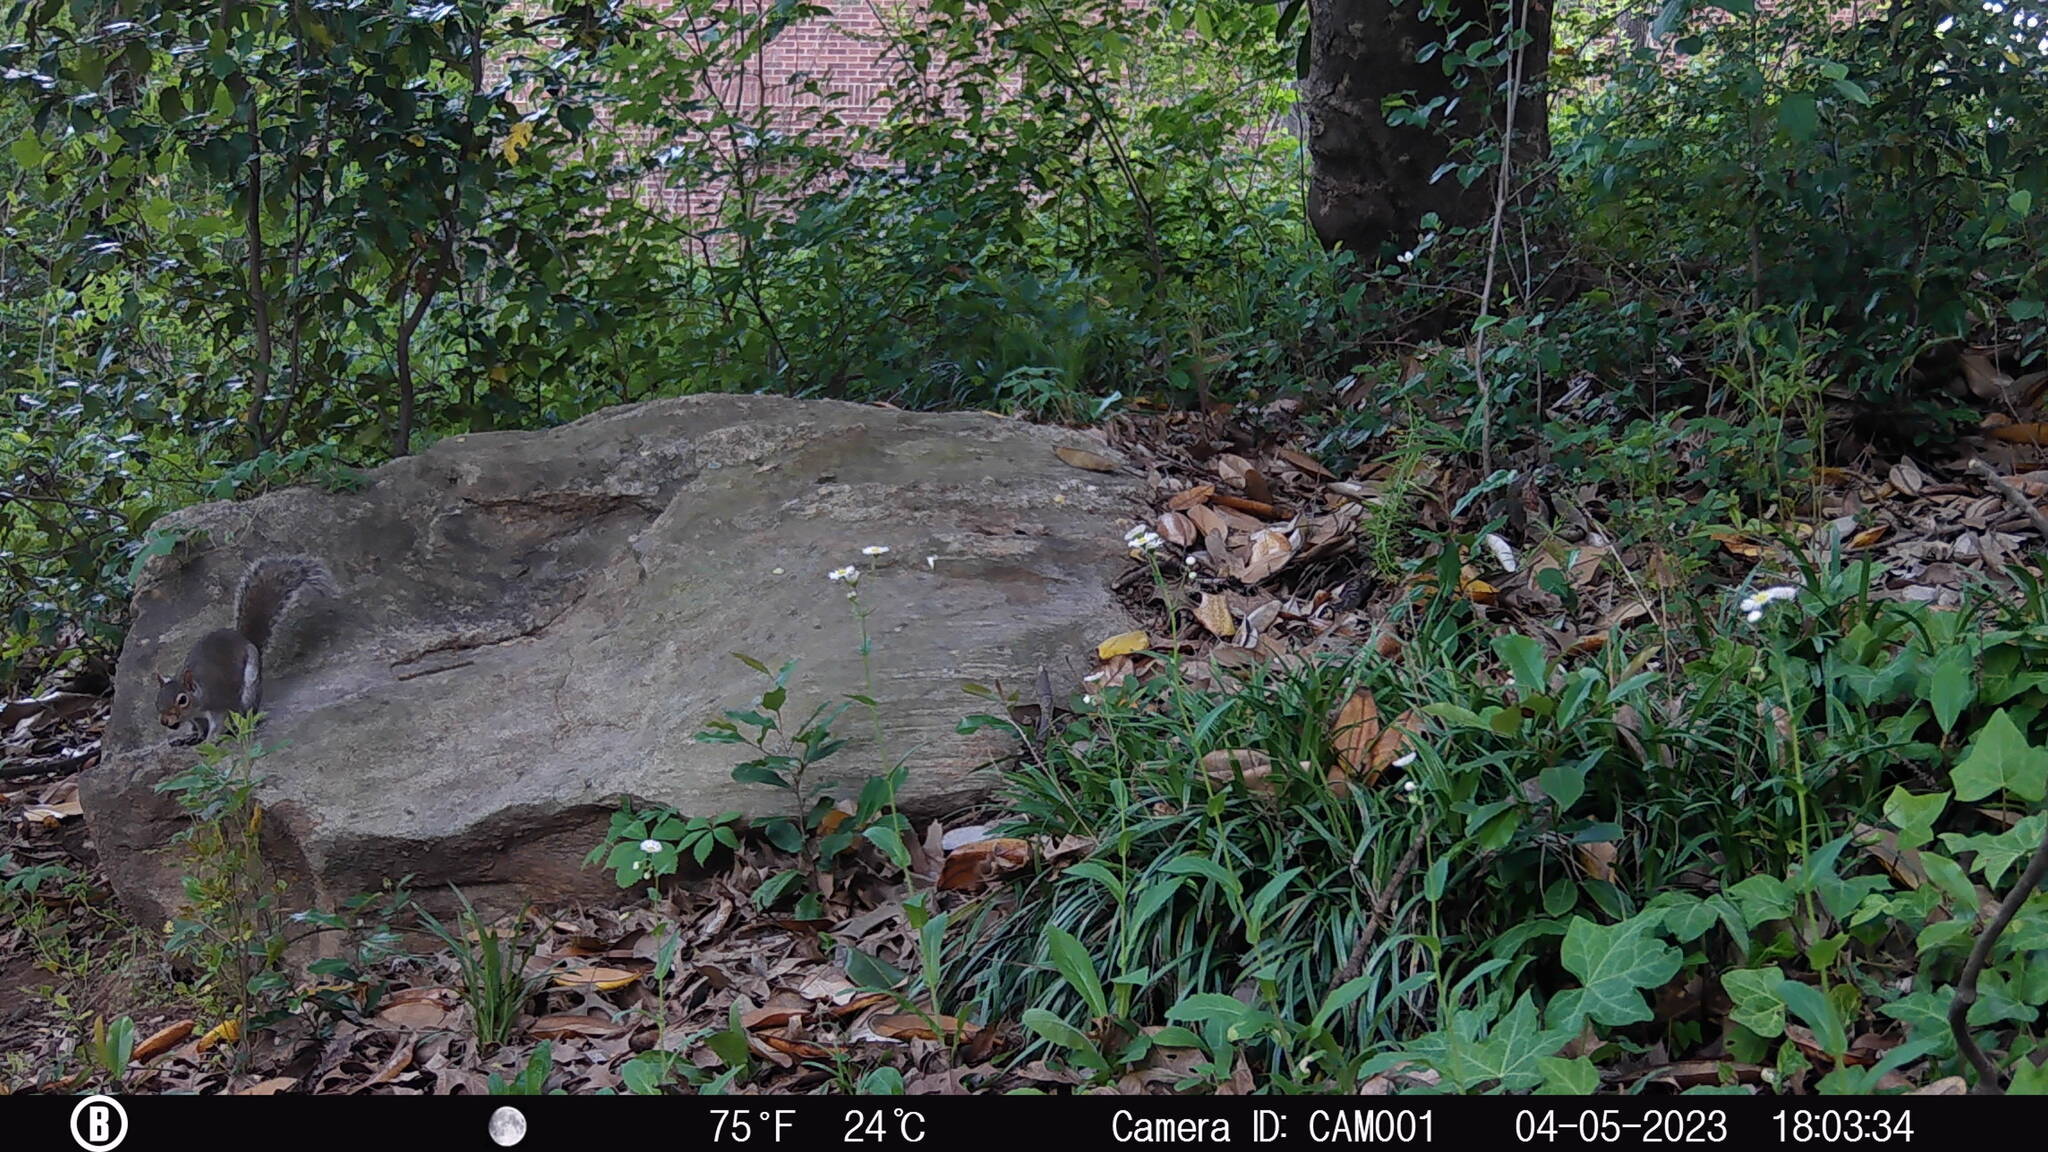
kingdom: Animalia
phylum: Chordata
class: Mammalia
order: Rodentia
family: Sciuridae
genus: Sciurus
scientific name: Sciurus carolinensis
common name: Eastern gray squirrel
